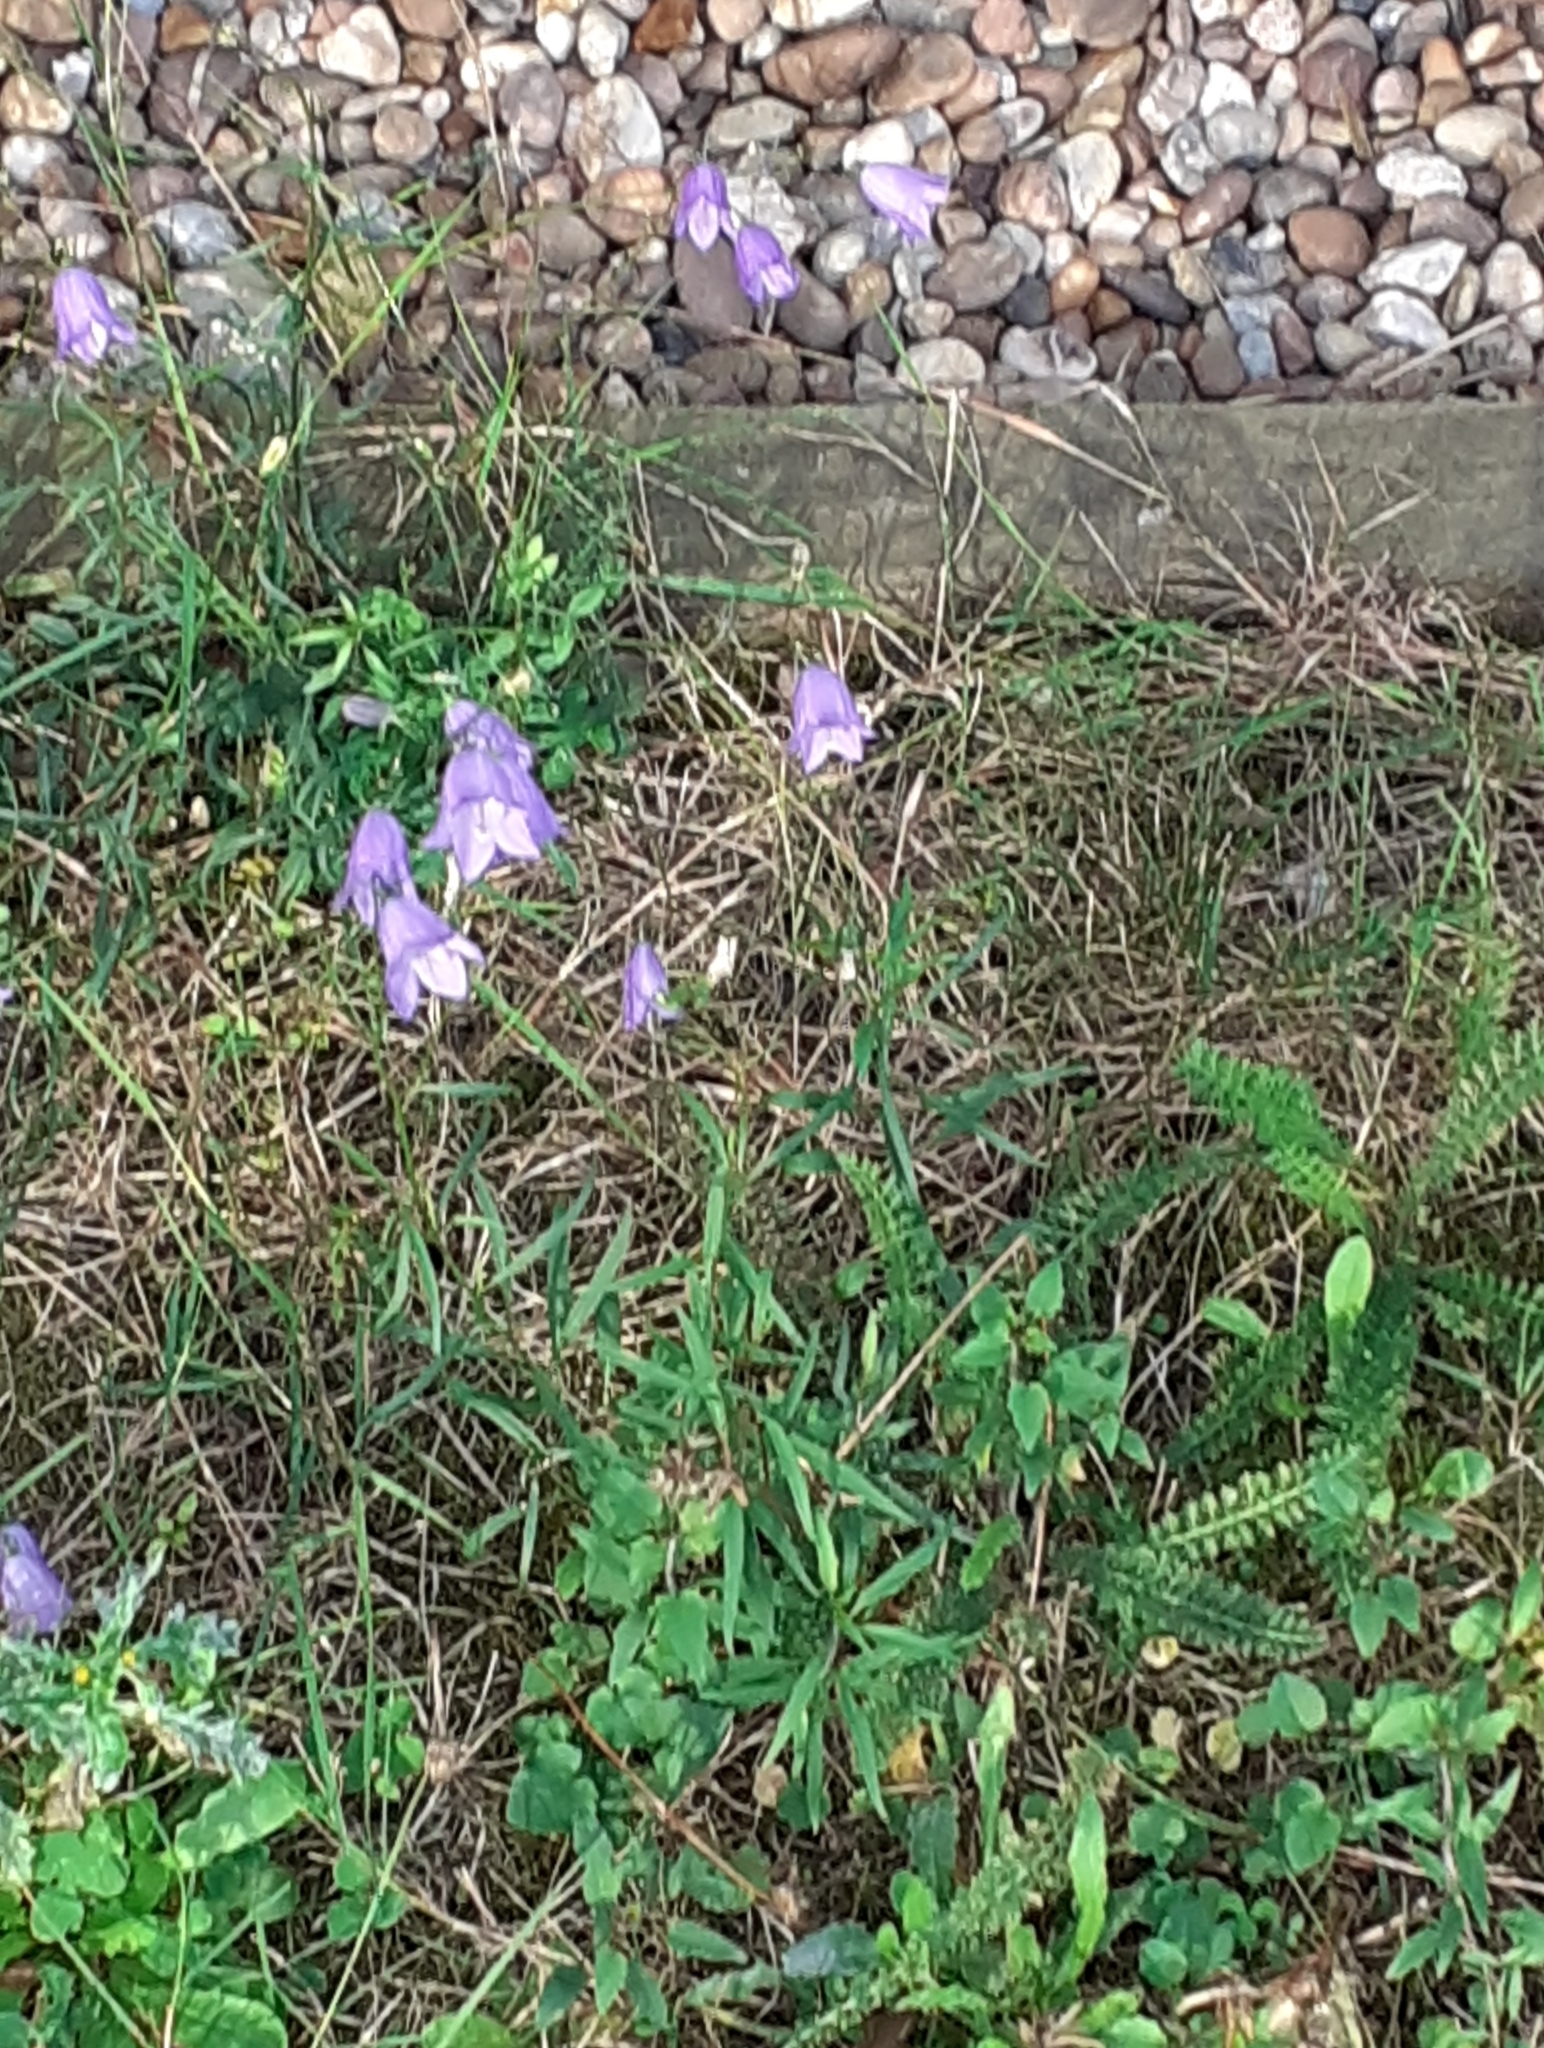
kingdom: Plantae
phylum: Tracheophyta
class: Magnoliopsida
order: Asterales
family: Campanulaceae
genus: Campanula
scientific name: Campanula rotundifolia
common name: Harebell
